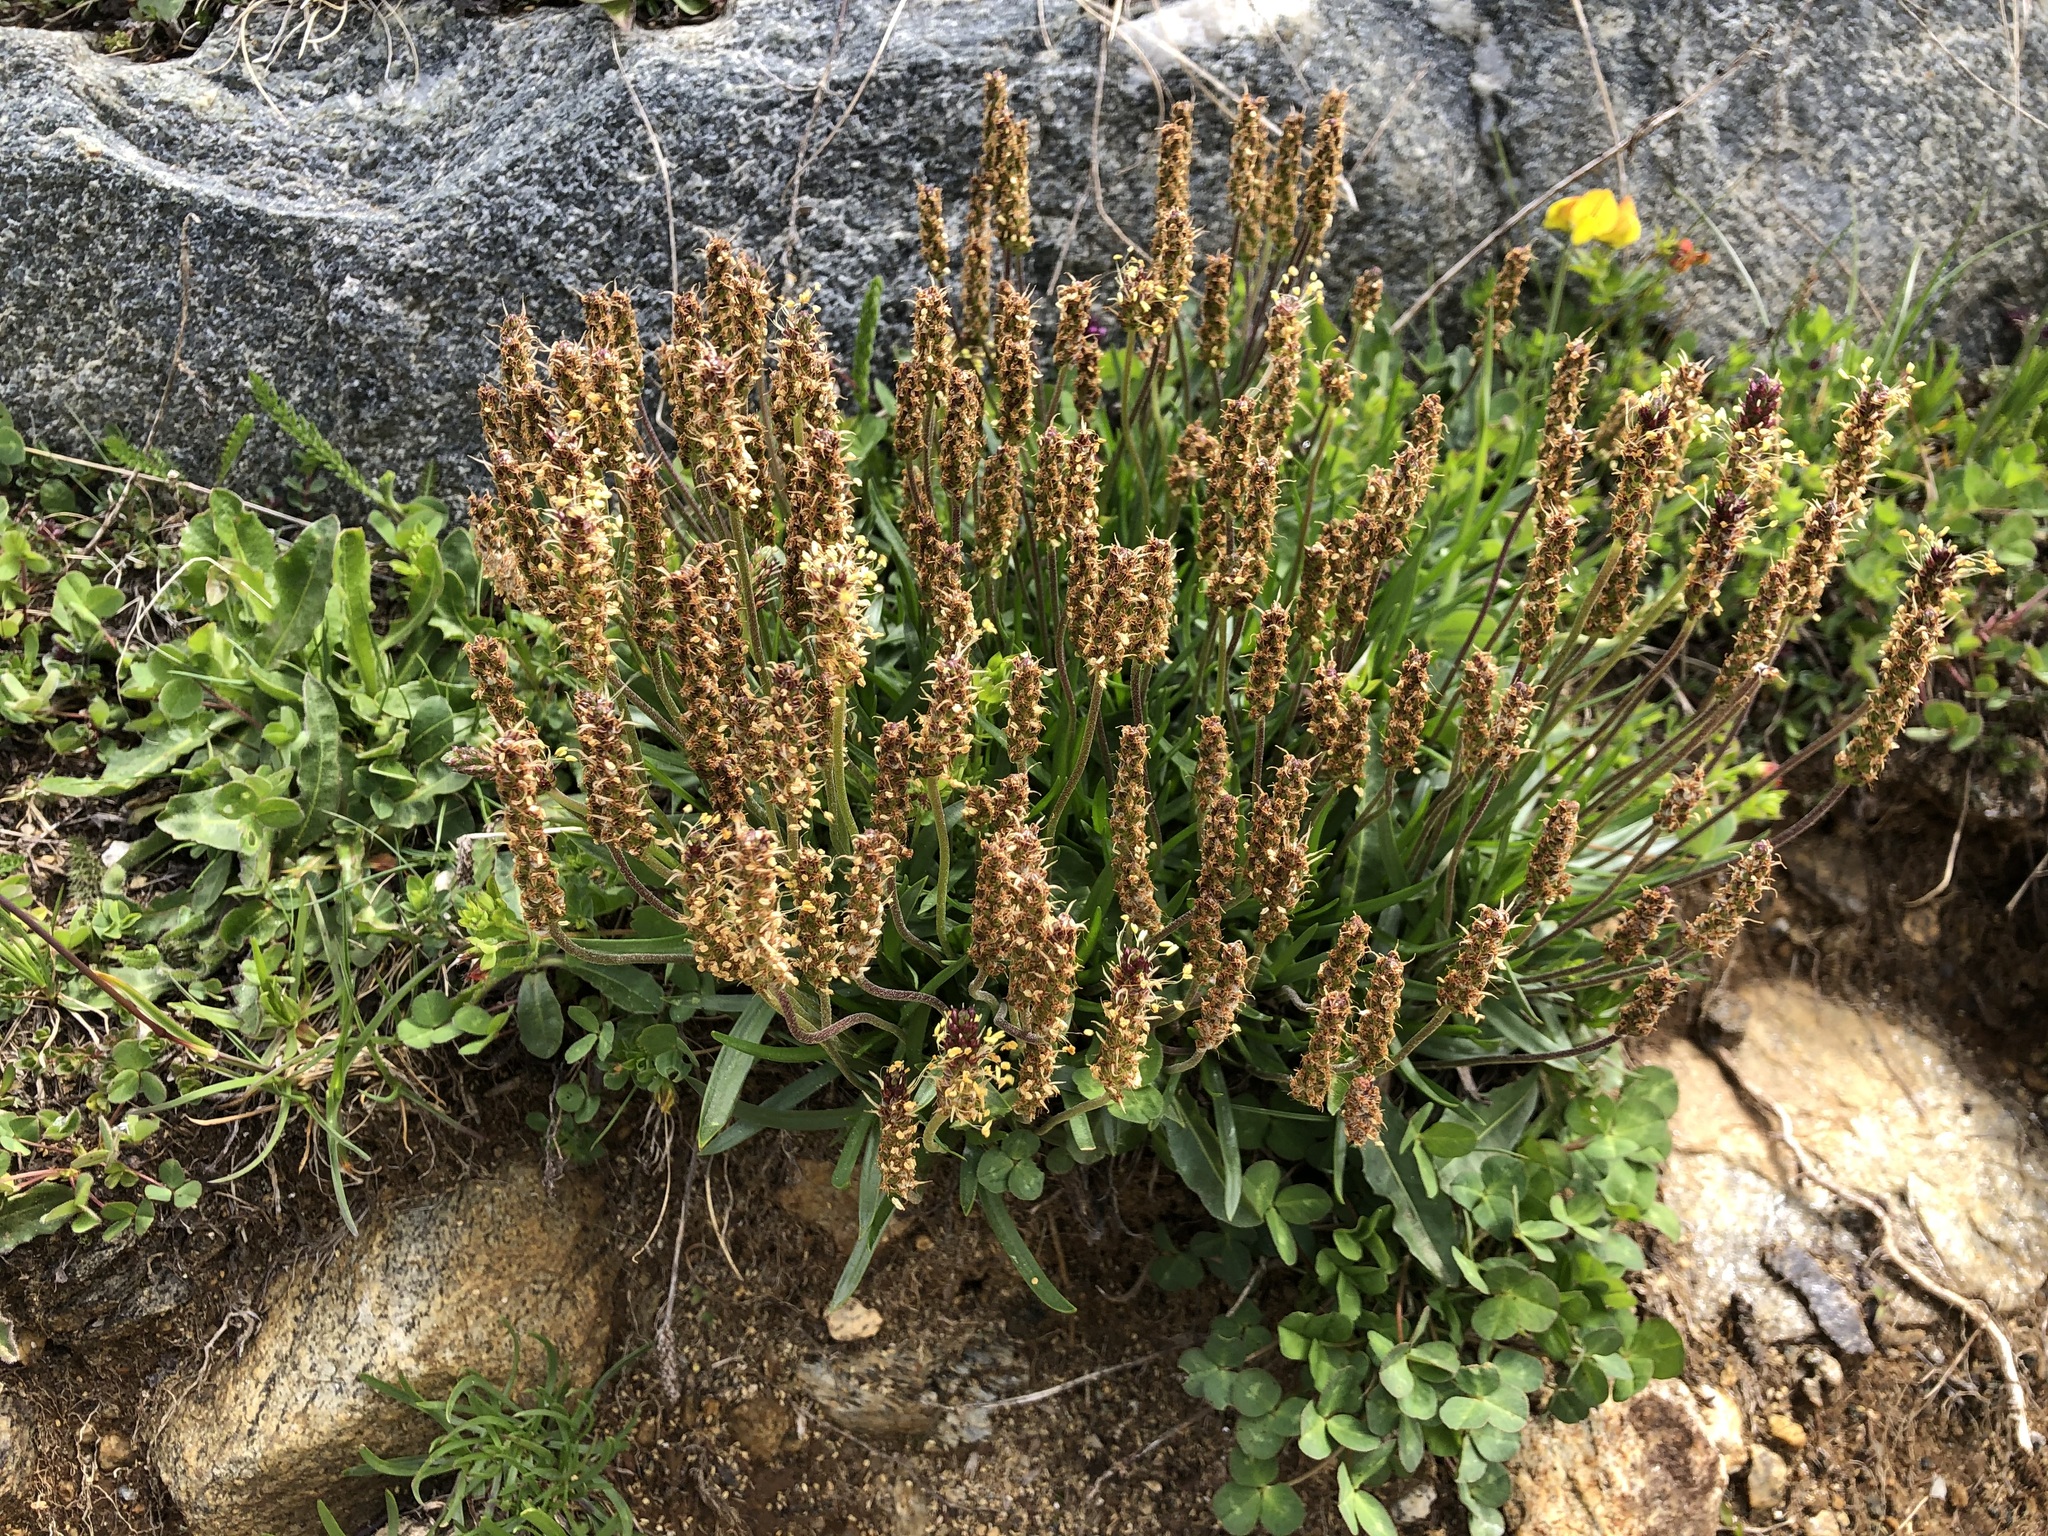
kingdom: Plantae
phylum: Tracheophyta
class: Magnoliopsida
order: Lamiales
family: Plantaginaceae
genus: Plantago
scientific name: Plantago alpina
